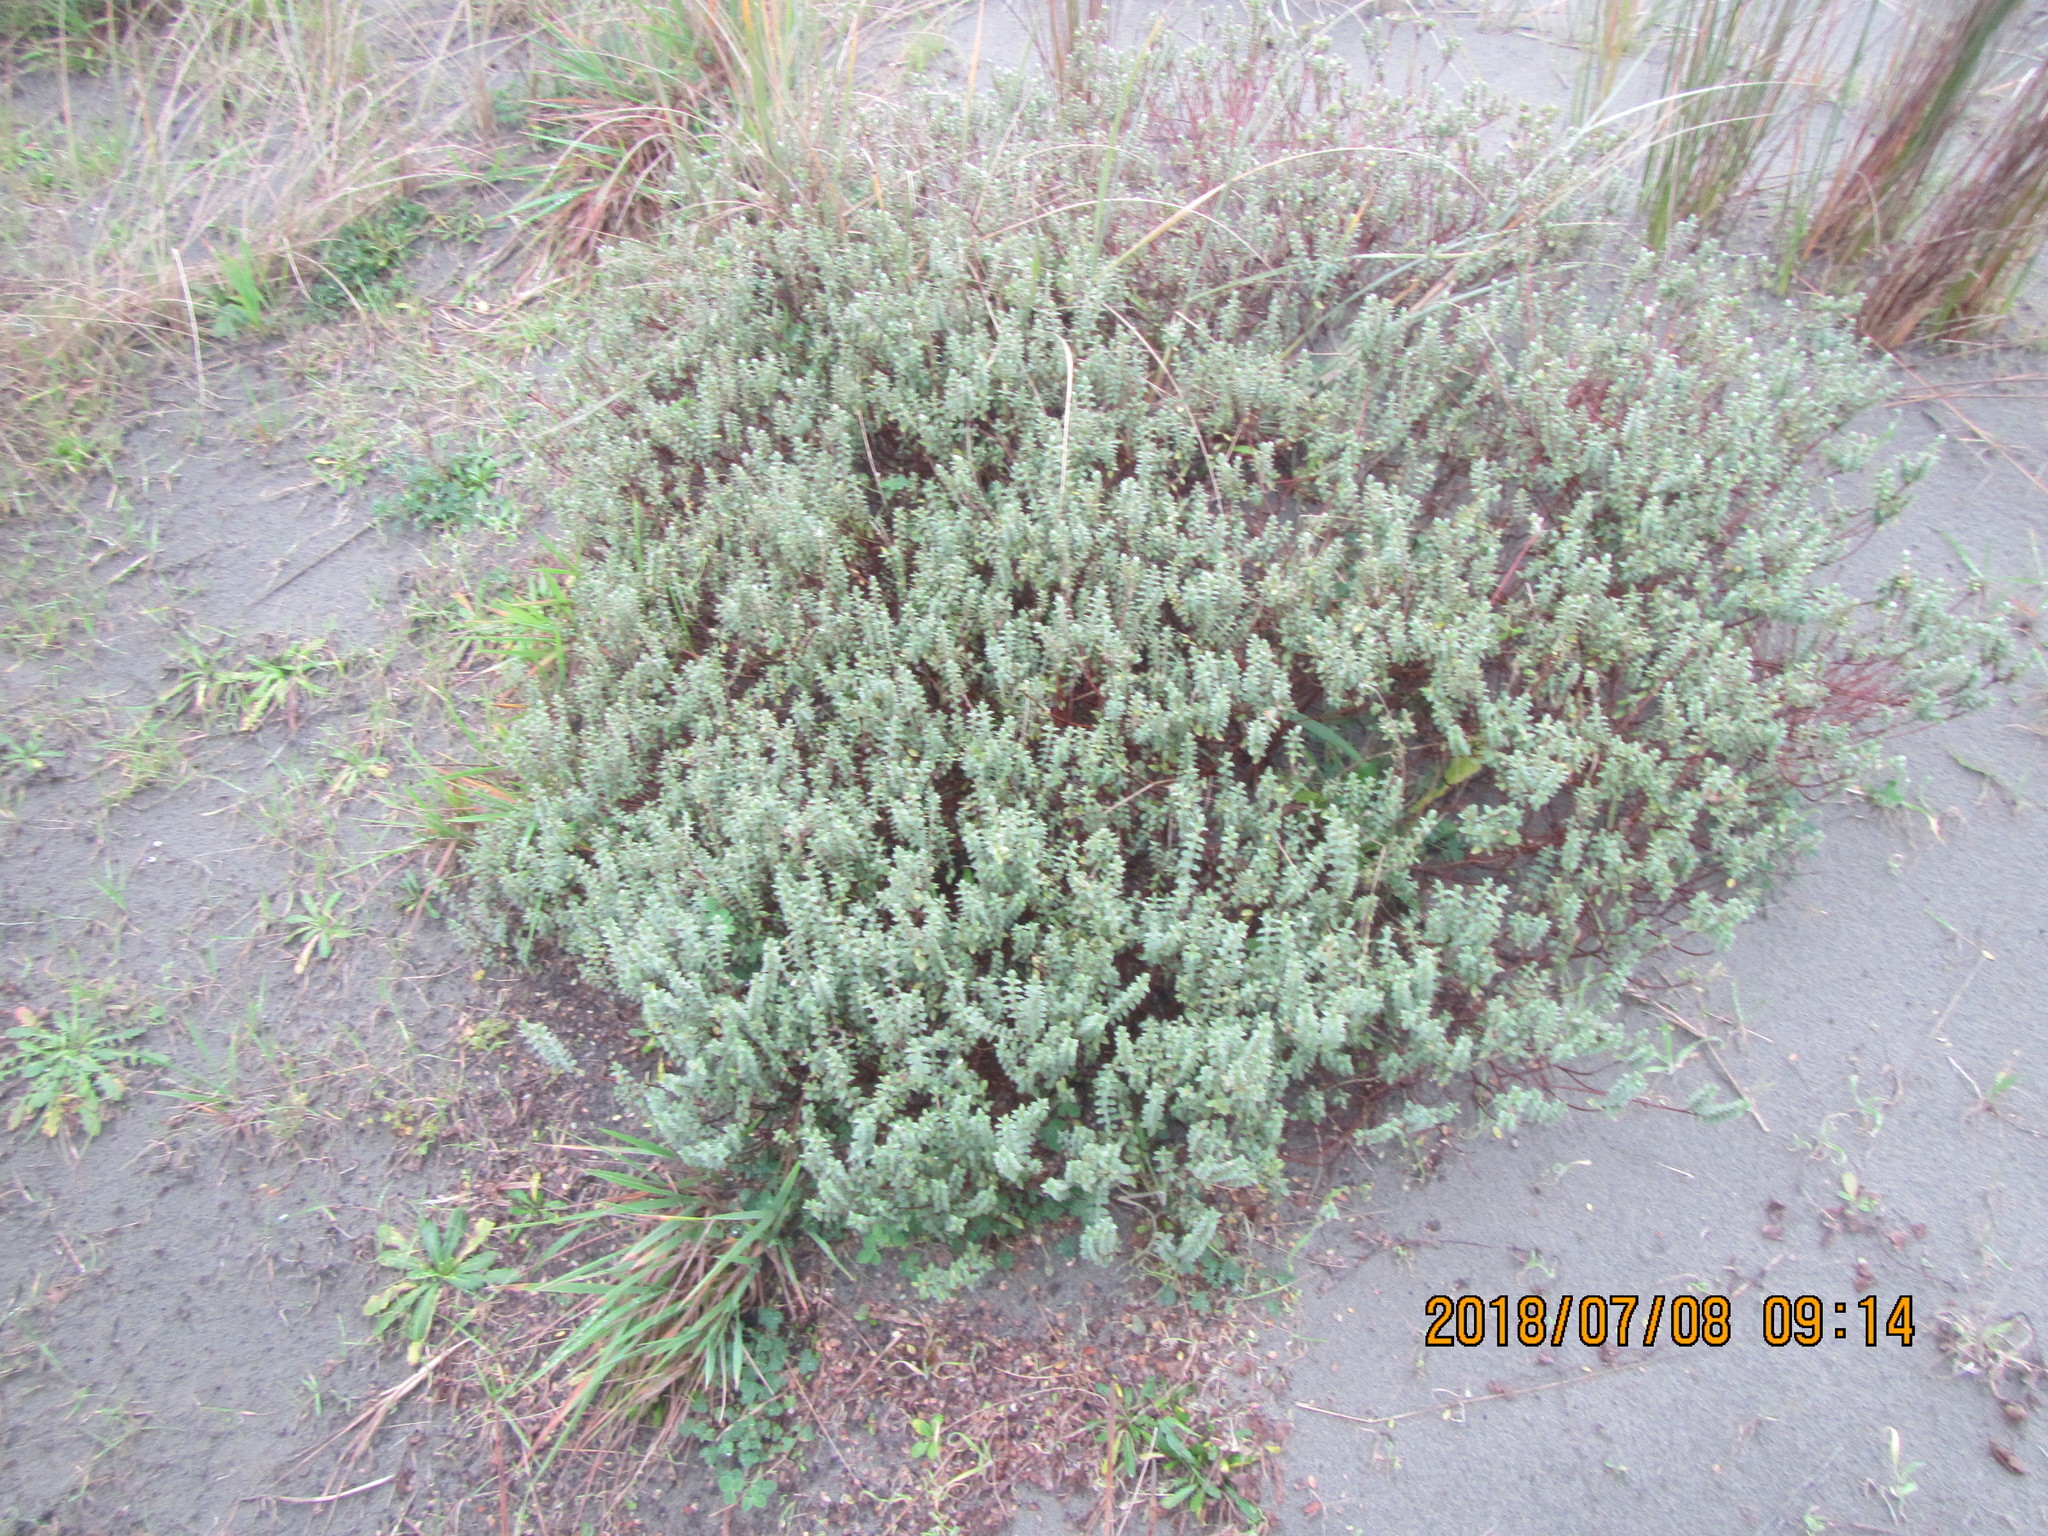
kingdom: Plantae
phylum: Tracheophyta
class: Magnoliopsida
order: Malvales
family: Thymelaeaceae
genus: Pimelea
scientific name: Pimelea villosa
